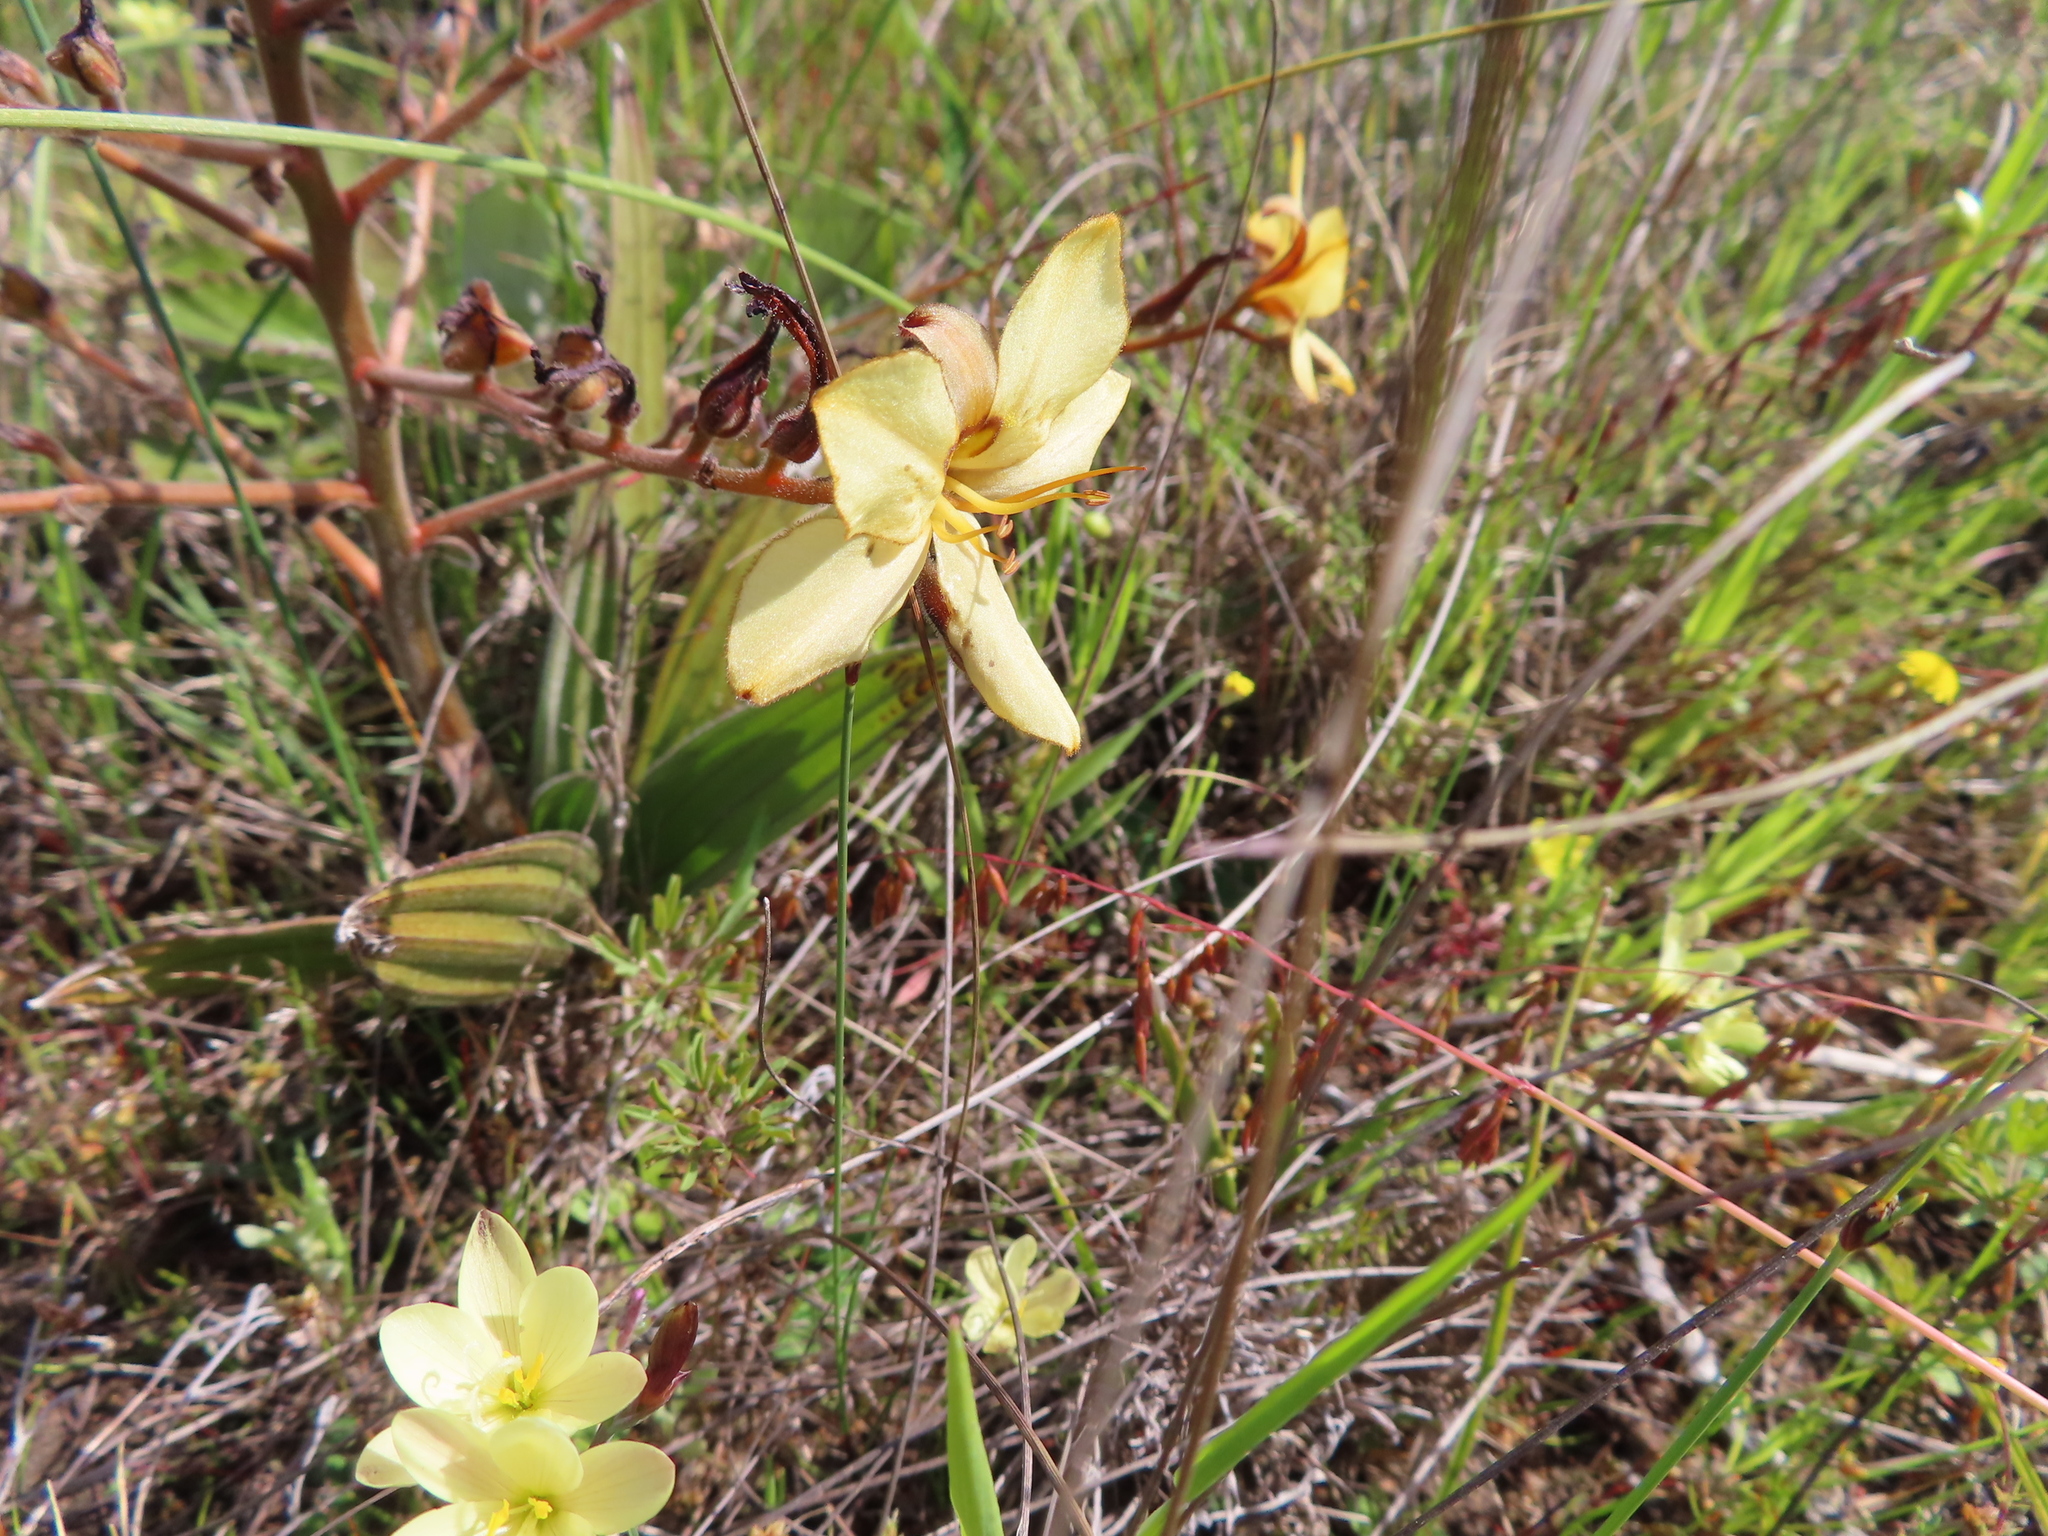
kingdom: Plantae
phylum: Tracheophyta
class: Liliopsida
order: Commelinales
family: Haemodoraceae
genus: Wachendorfia
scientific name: Wachendorfia paniculata
